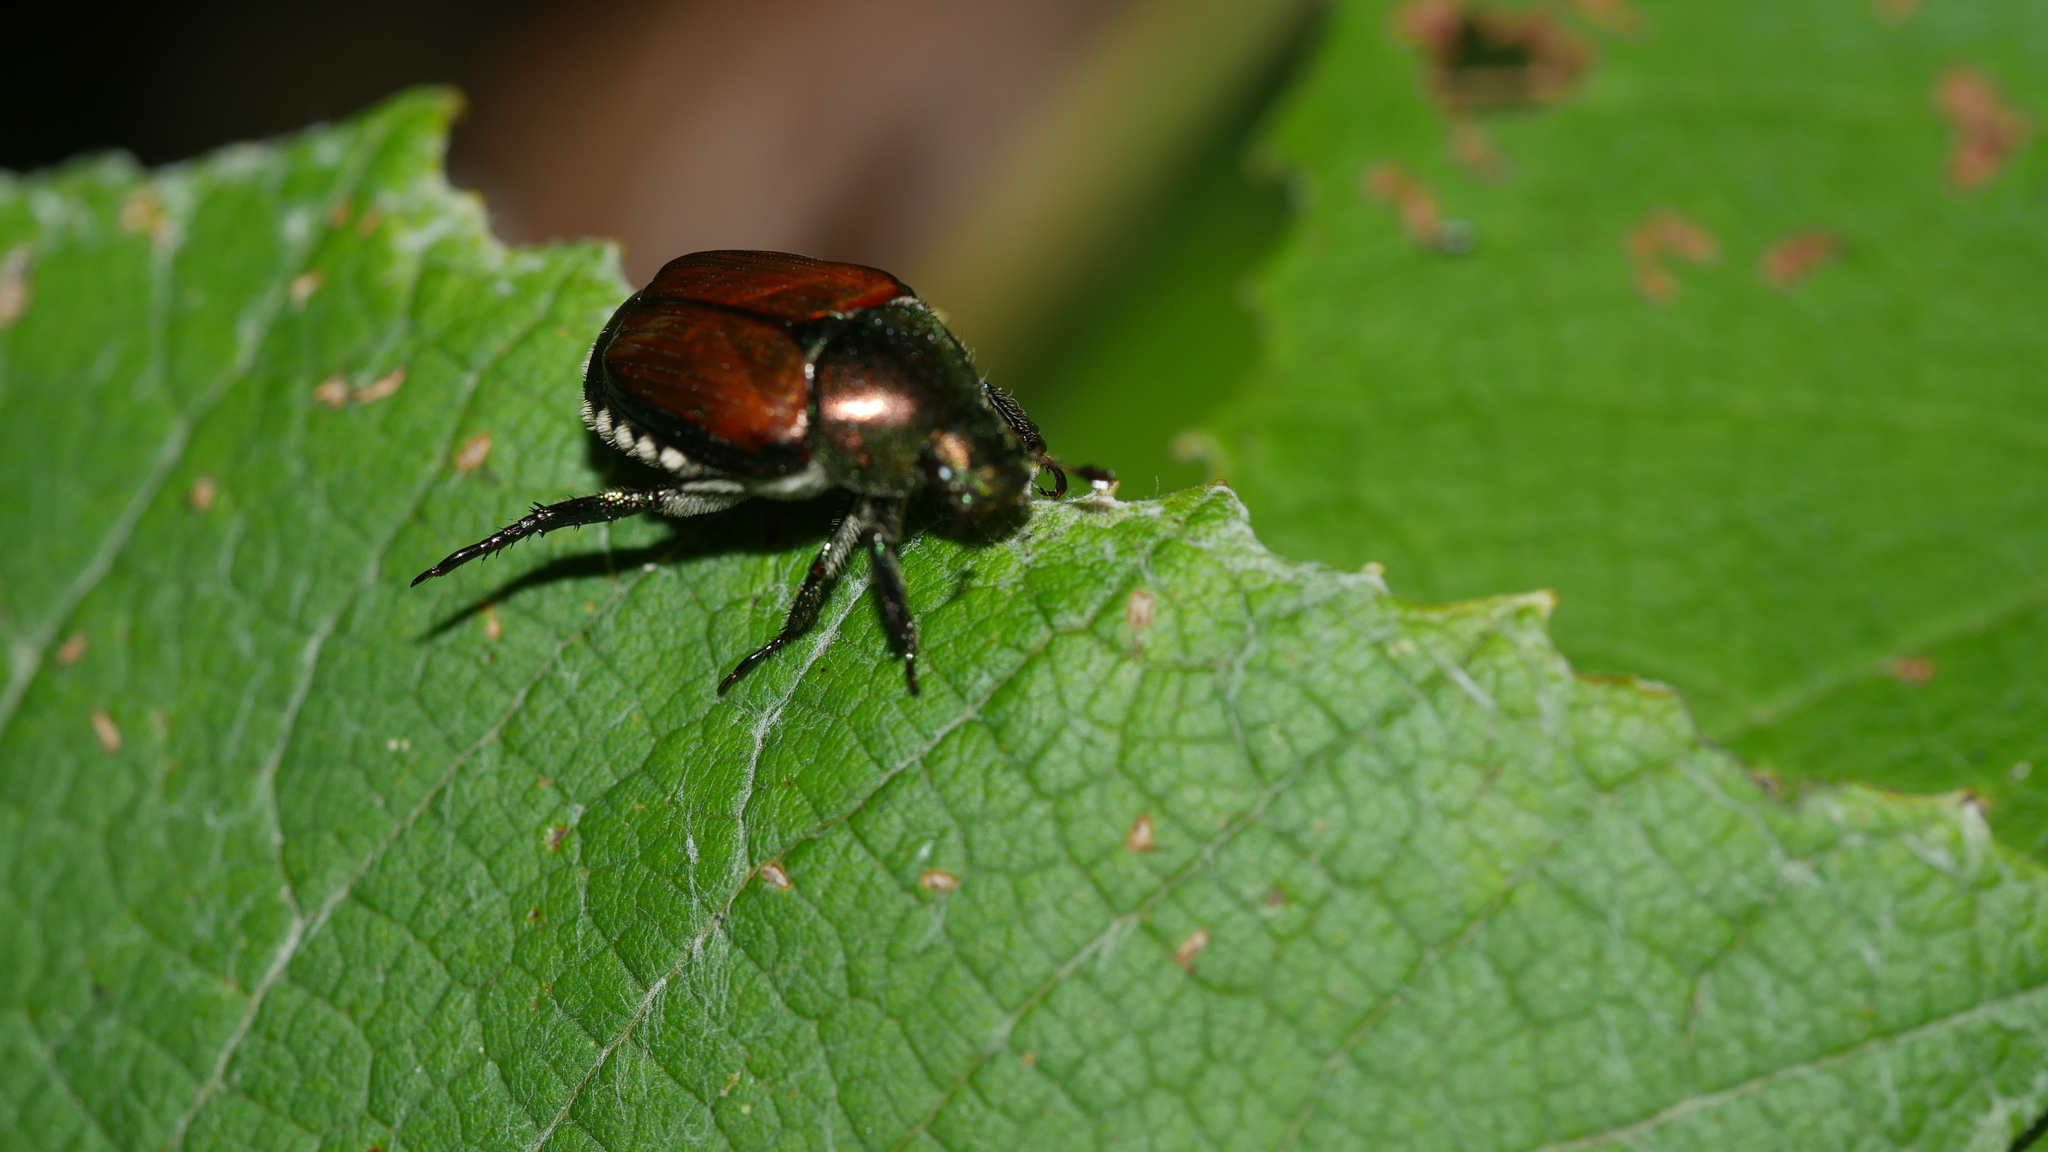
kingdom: Animalia
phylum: Arthropoda
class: Insecta
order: Coleoptera
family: Scarabaeidae
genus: Popillia
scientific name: Popillia japonica
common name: Japanese beetle
